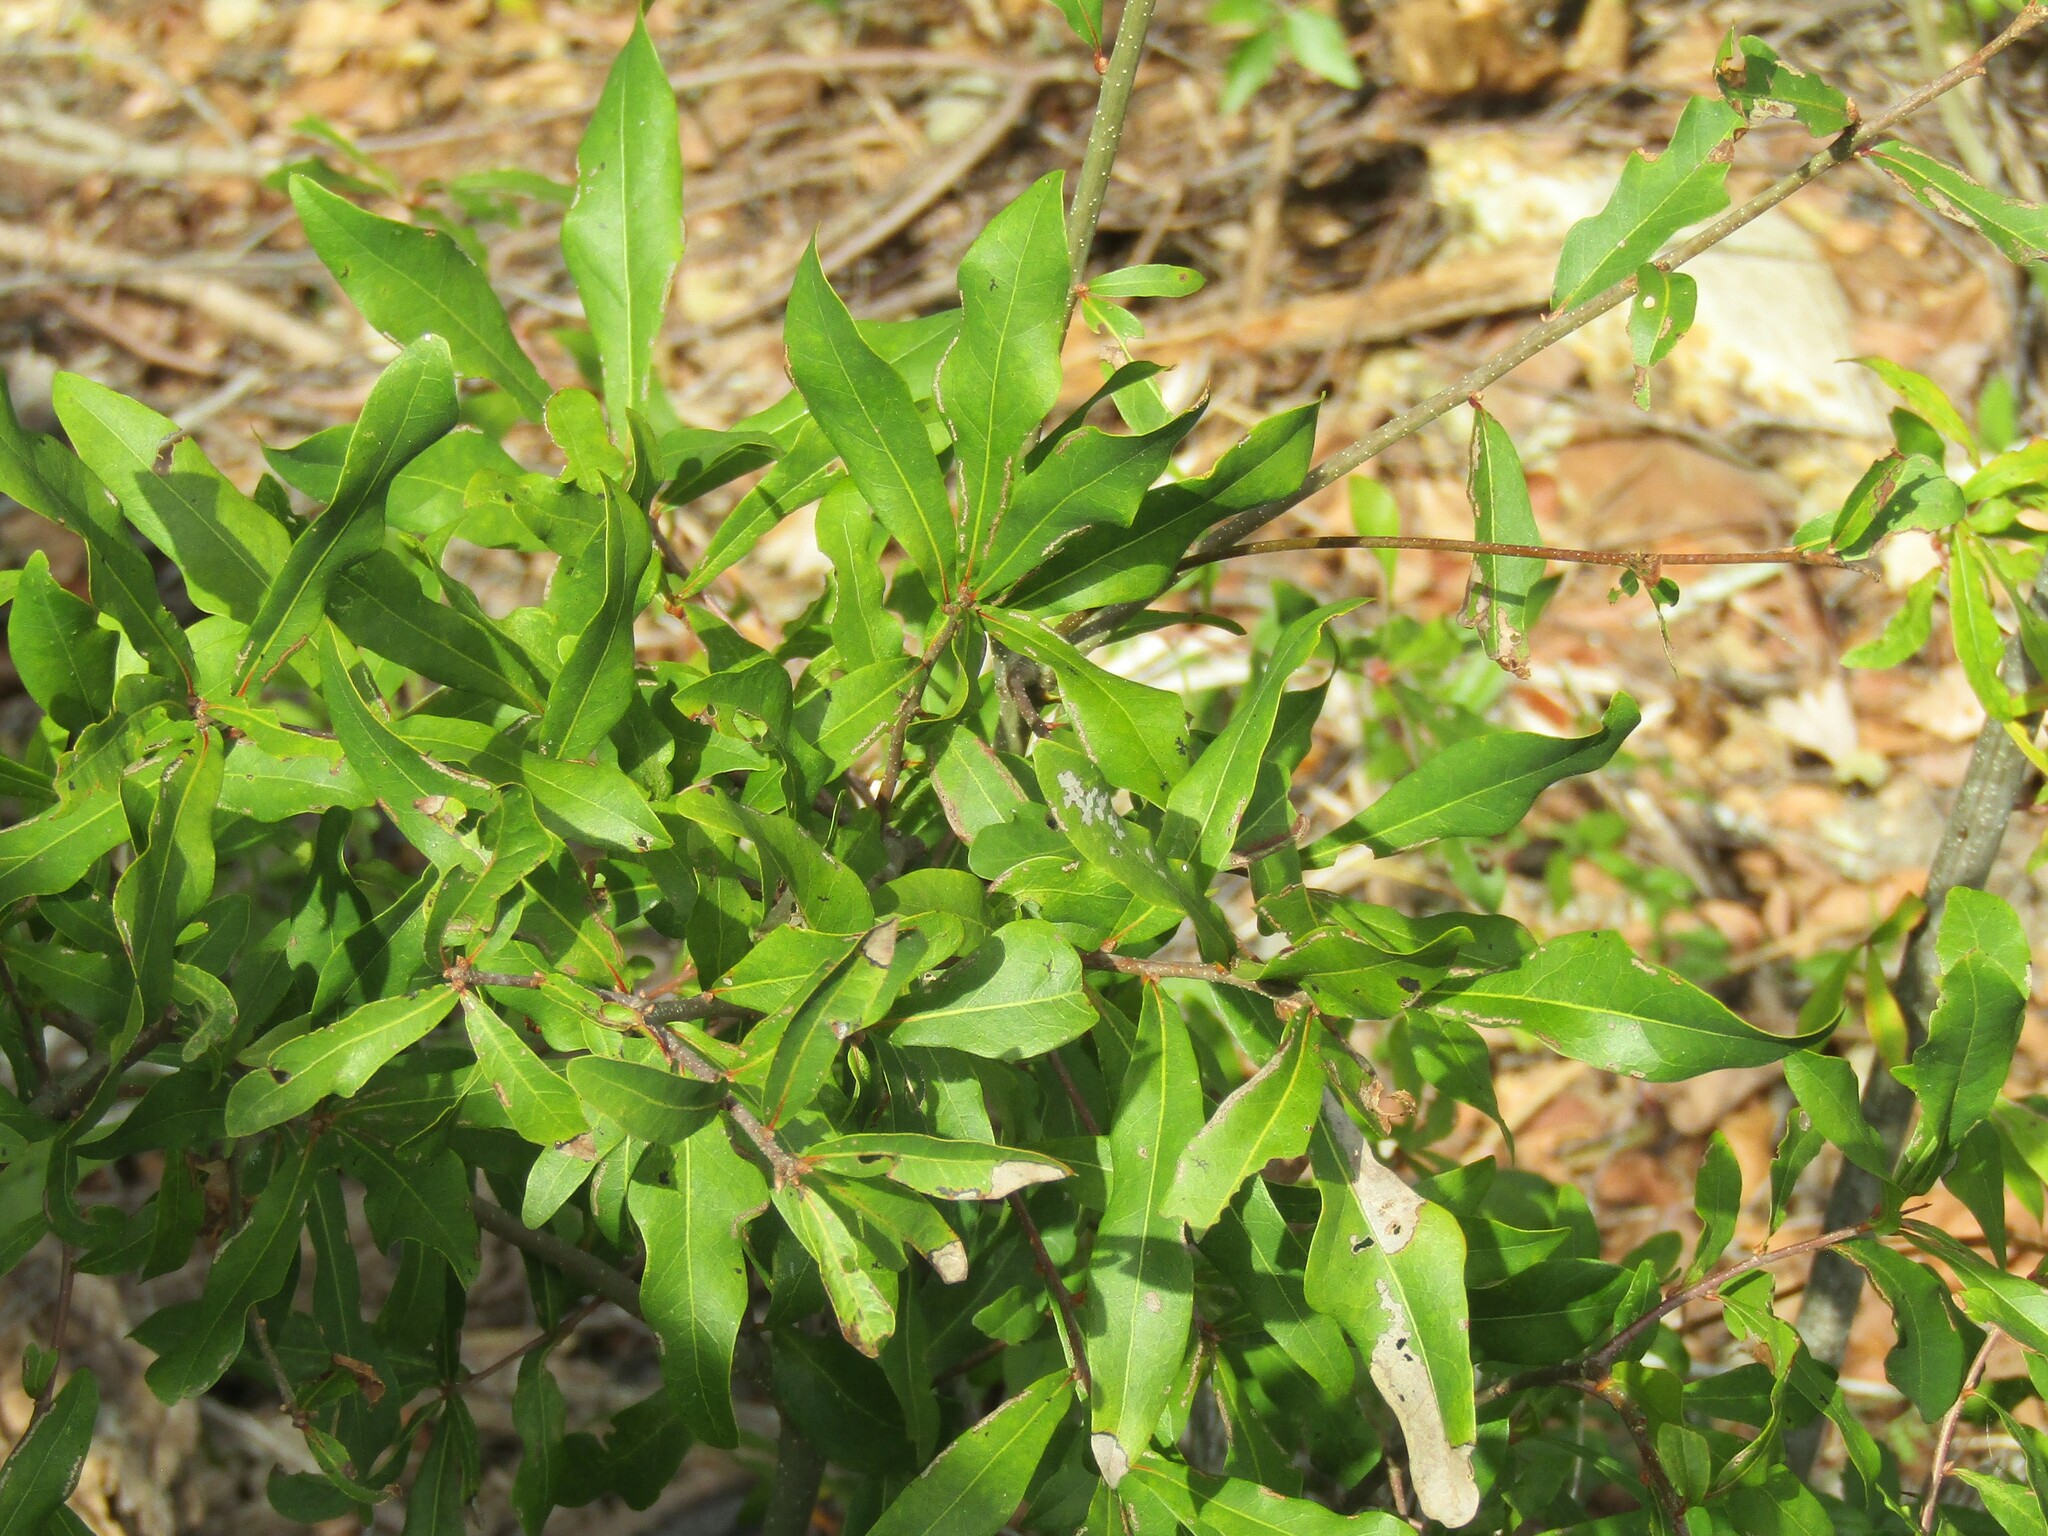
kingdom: Plantae
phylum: Tracheophyta
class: Magnoliopsida
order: Fagales
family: Myricaceae
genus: Morella
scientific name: Morella cerifera
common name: Wax myrtle
